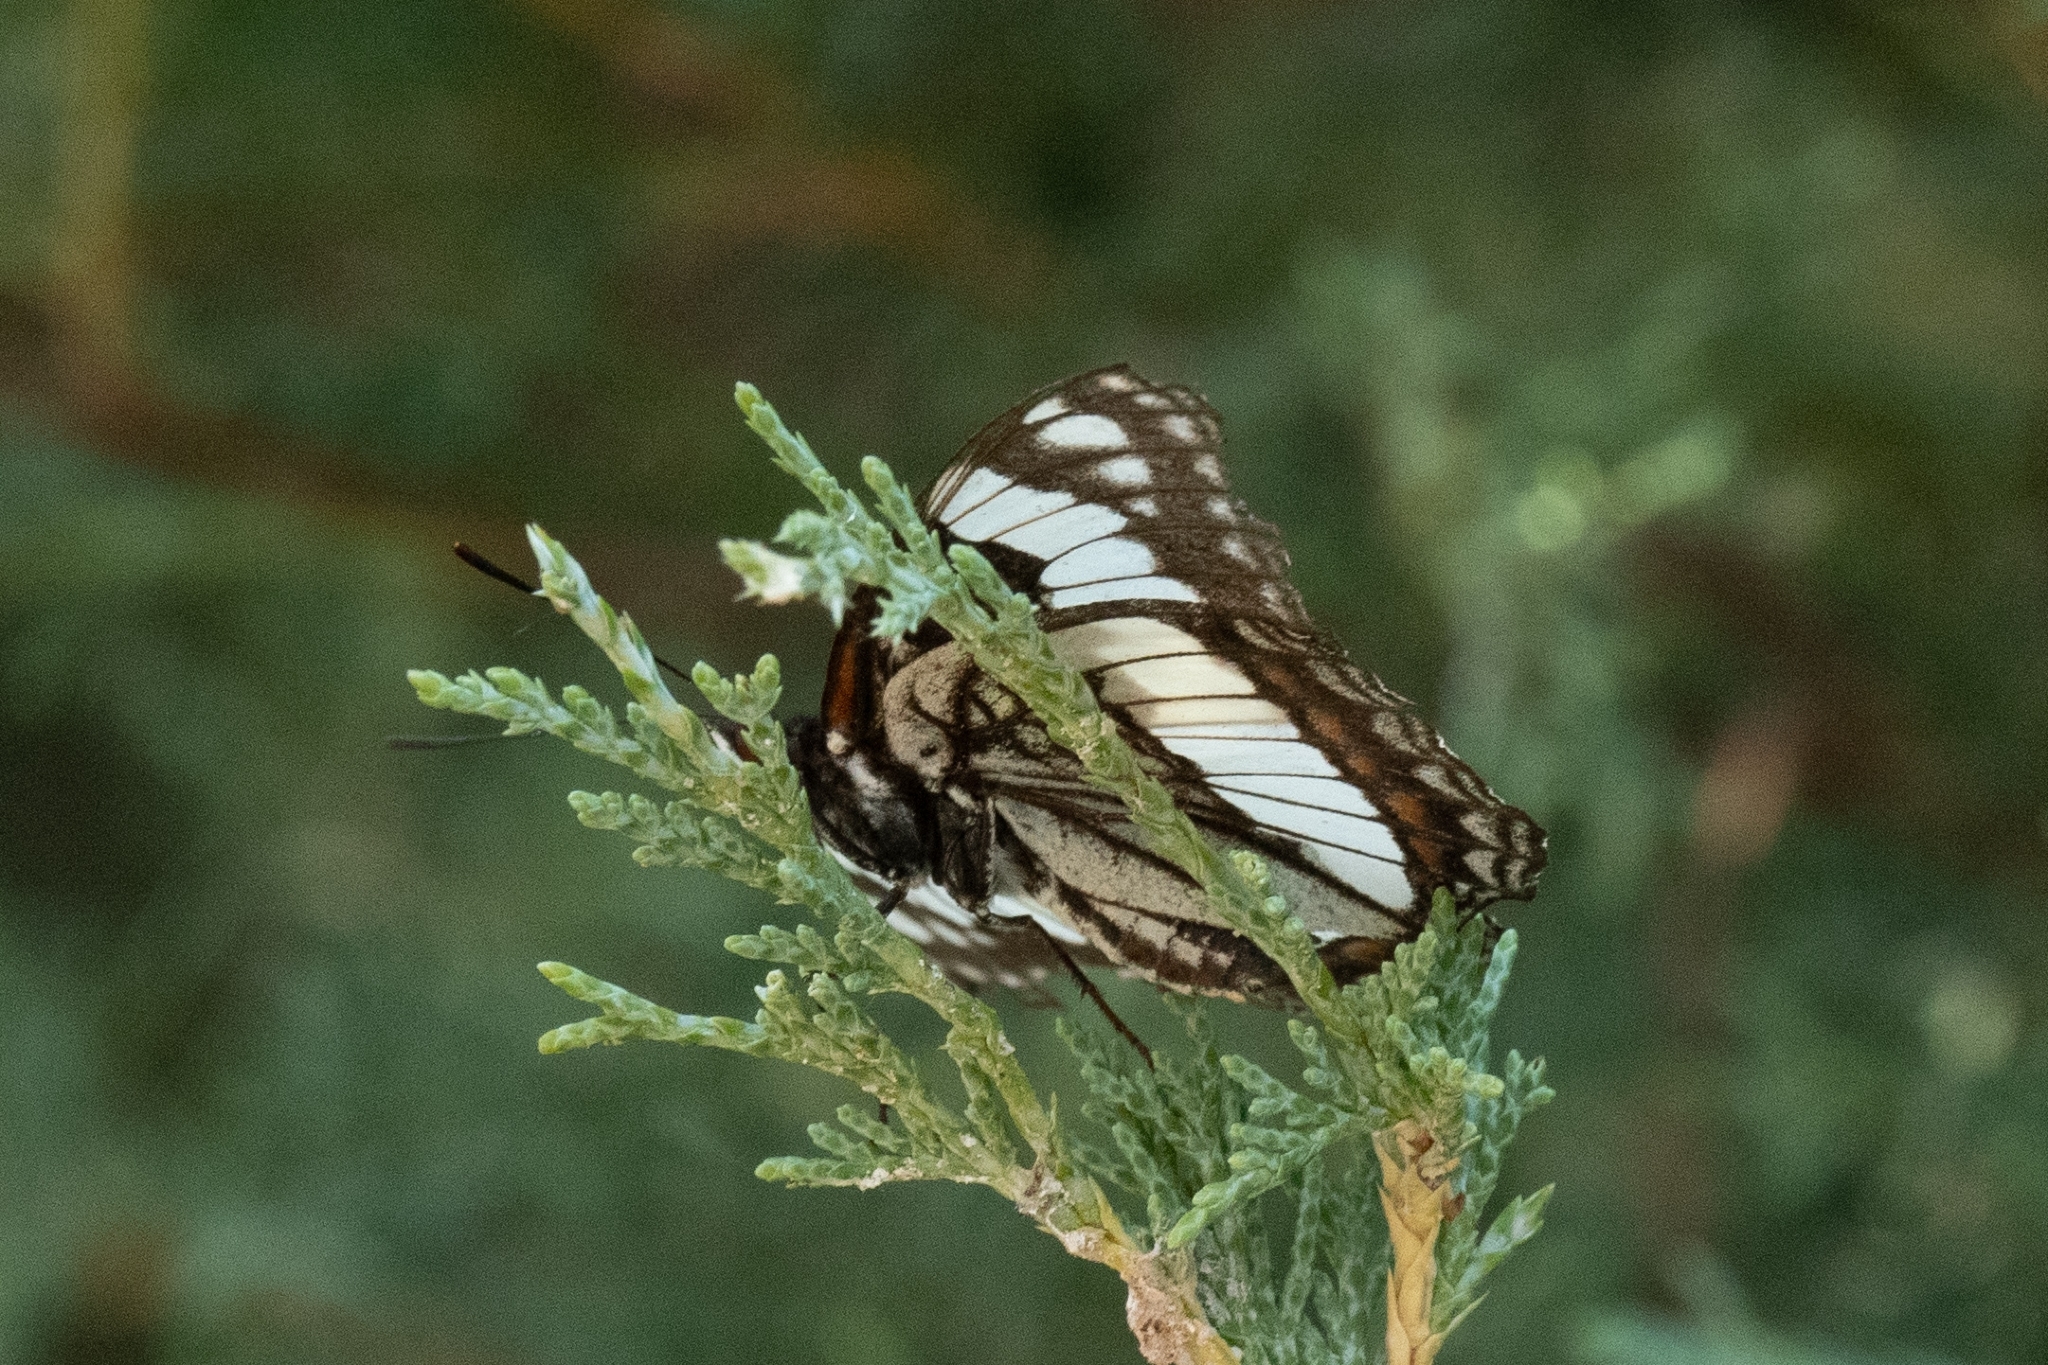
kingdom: Animalia
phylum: Arthropoda
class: Insecta
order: Lepidoptera
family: Nymphalidae
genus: Limenitis
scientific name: Limenitis weidemeyerii
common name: Weidemeyer's admiral
